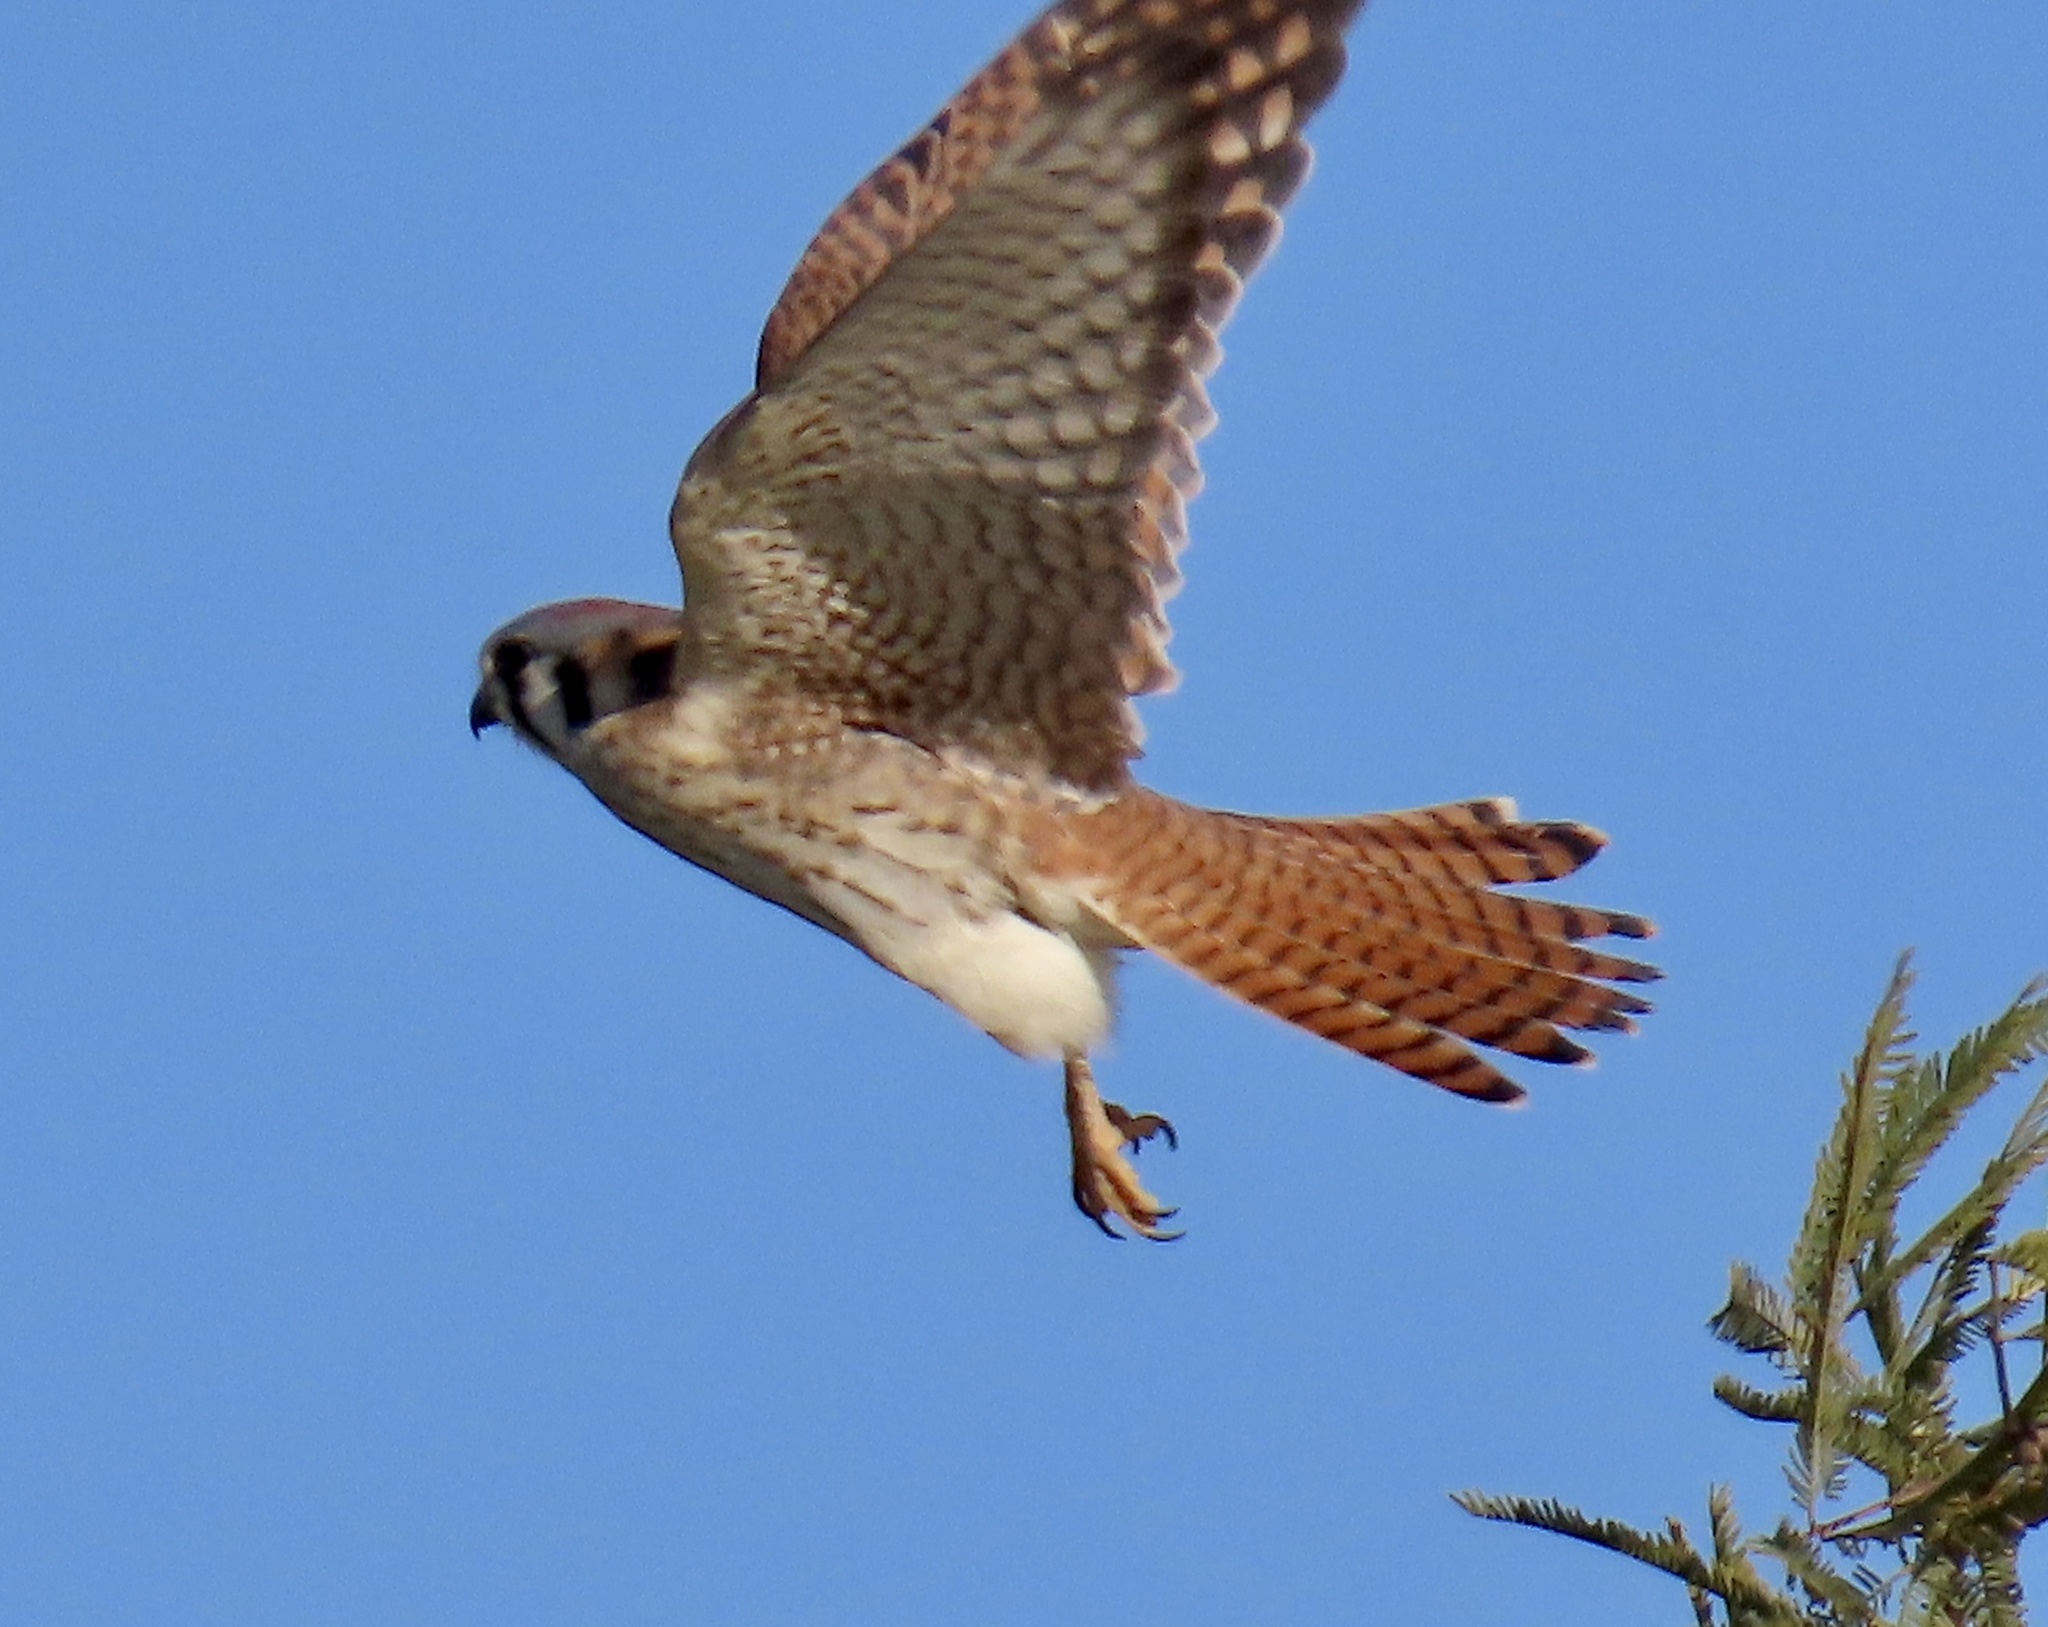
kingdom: Animalia
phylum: Chordata
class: Aves
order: Falconiformes
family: Falconidae
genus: Falco
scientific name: Falco sparverius
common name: American kestrel
